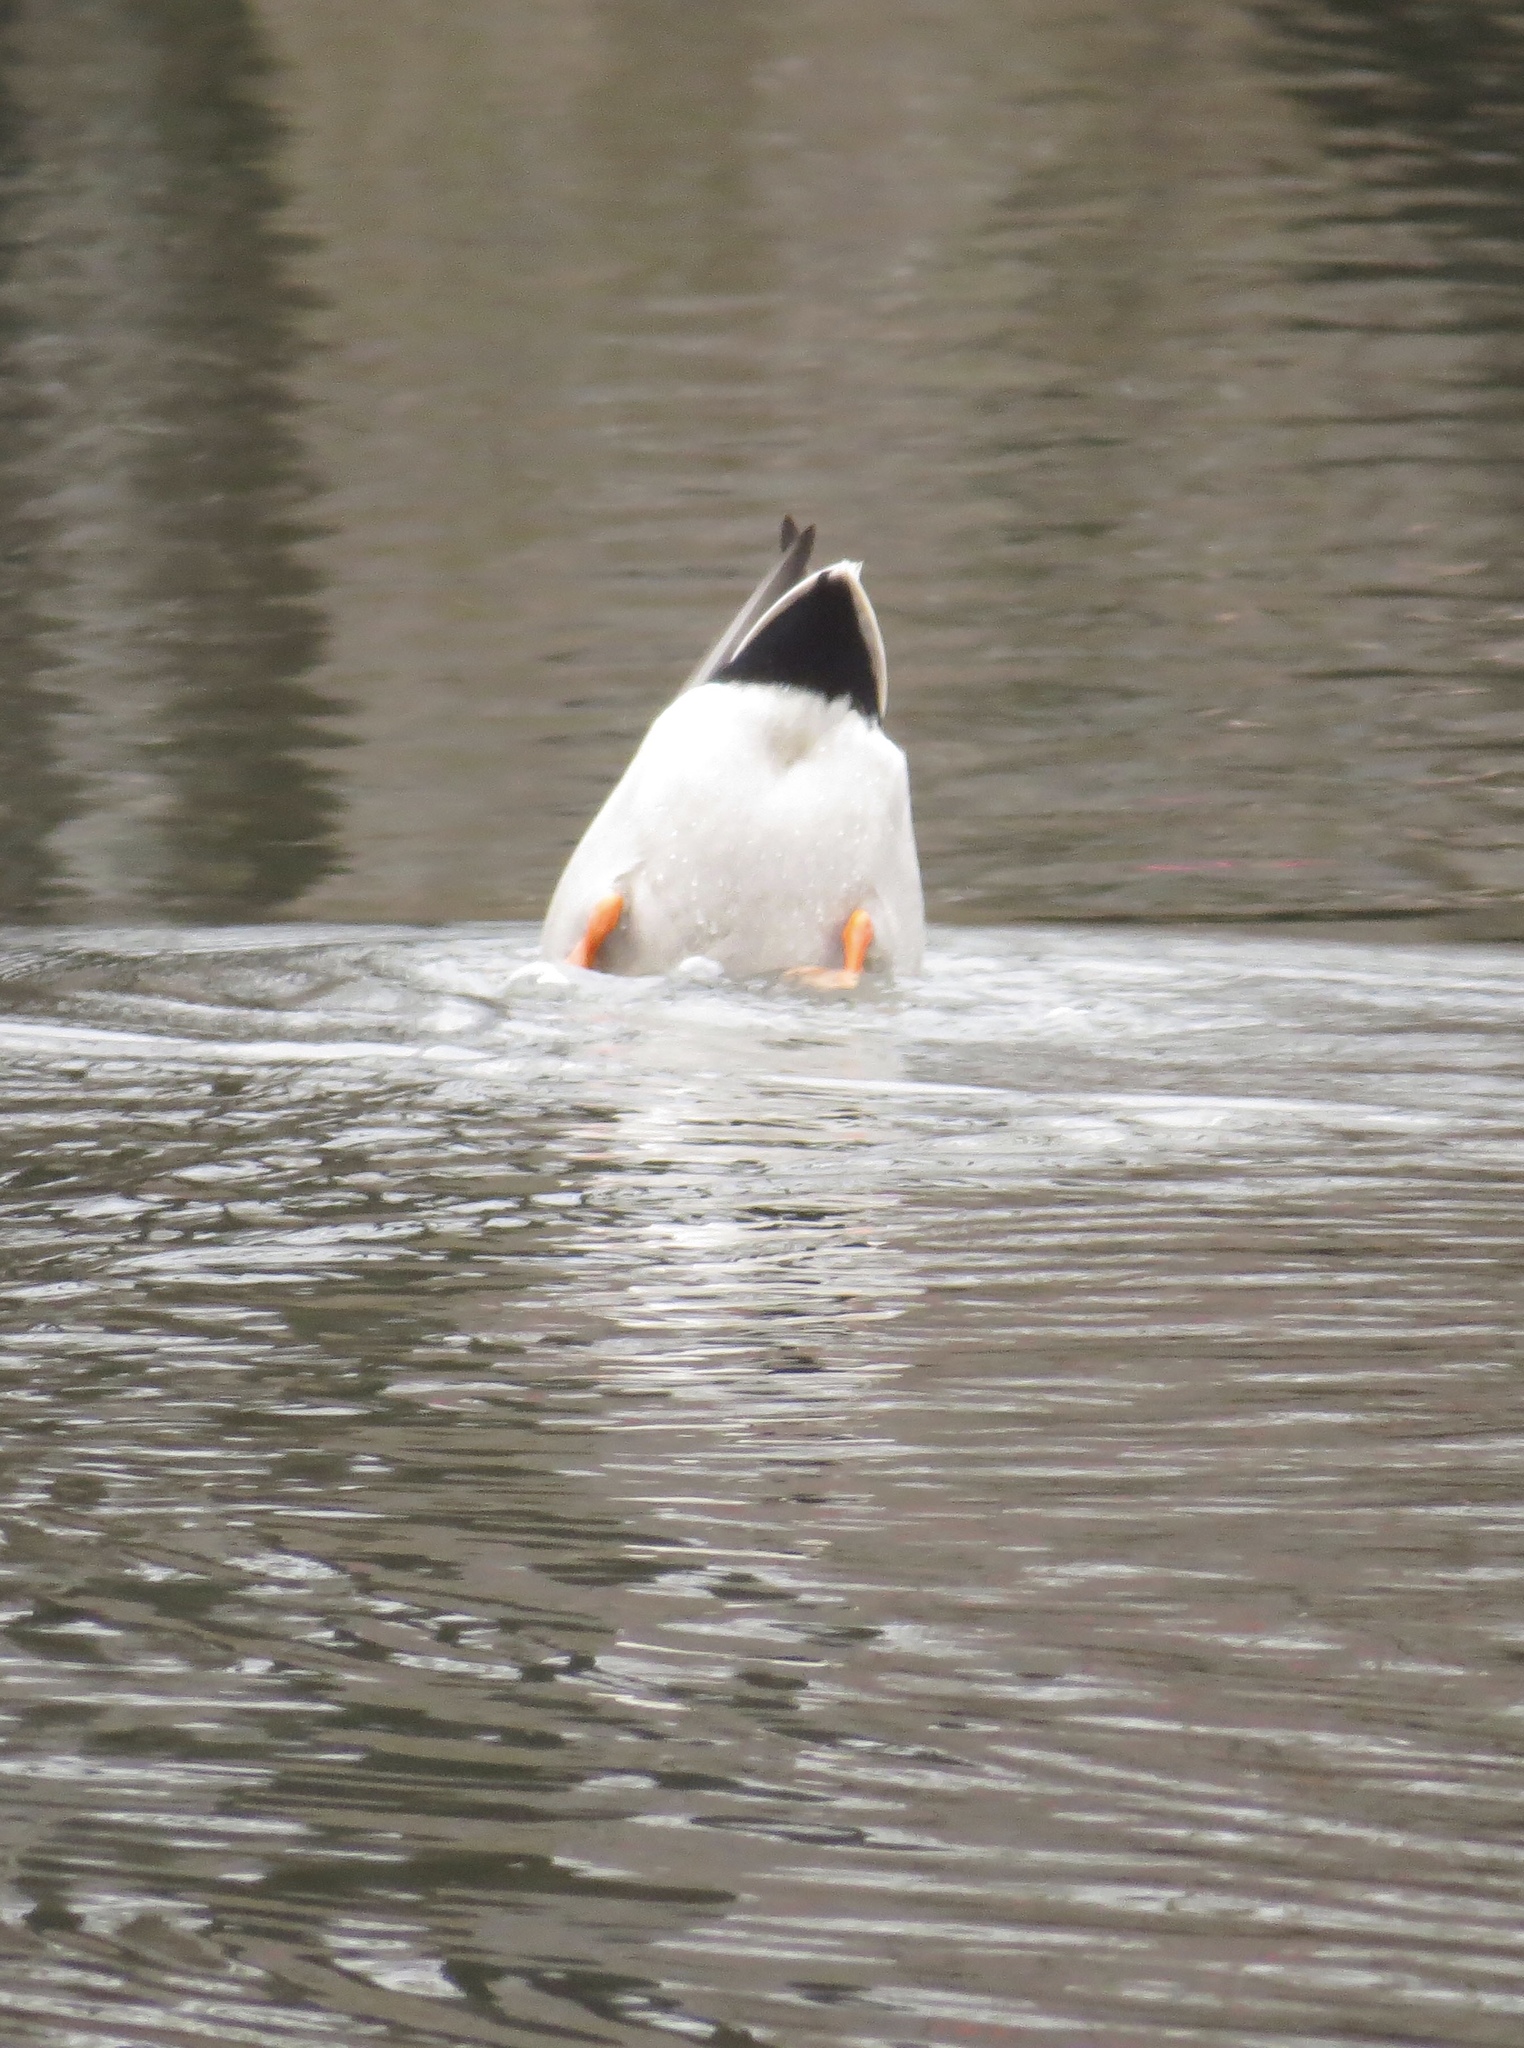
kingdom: Animalia
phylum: Chordata
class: Aves
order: Anseriformes
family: Anatidae
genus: Anas
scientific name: Anas platyrhynchos
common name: Mallard
